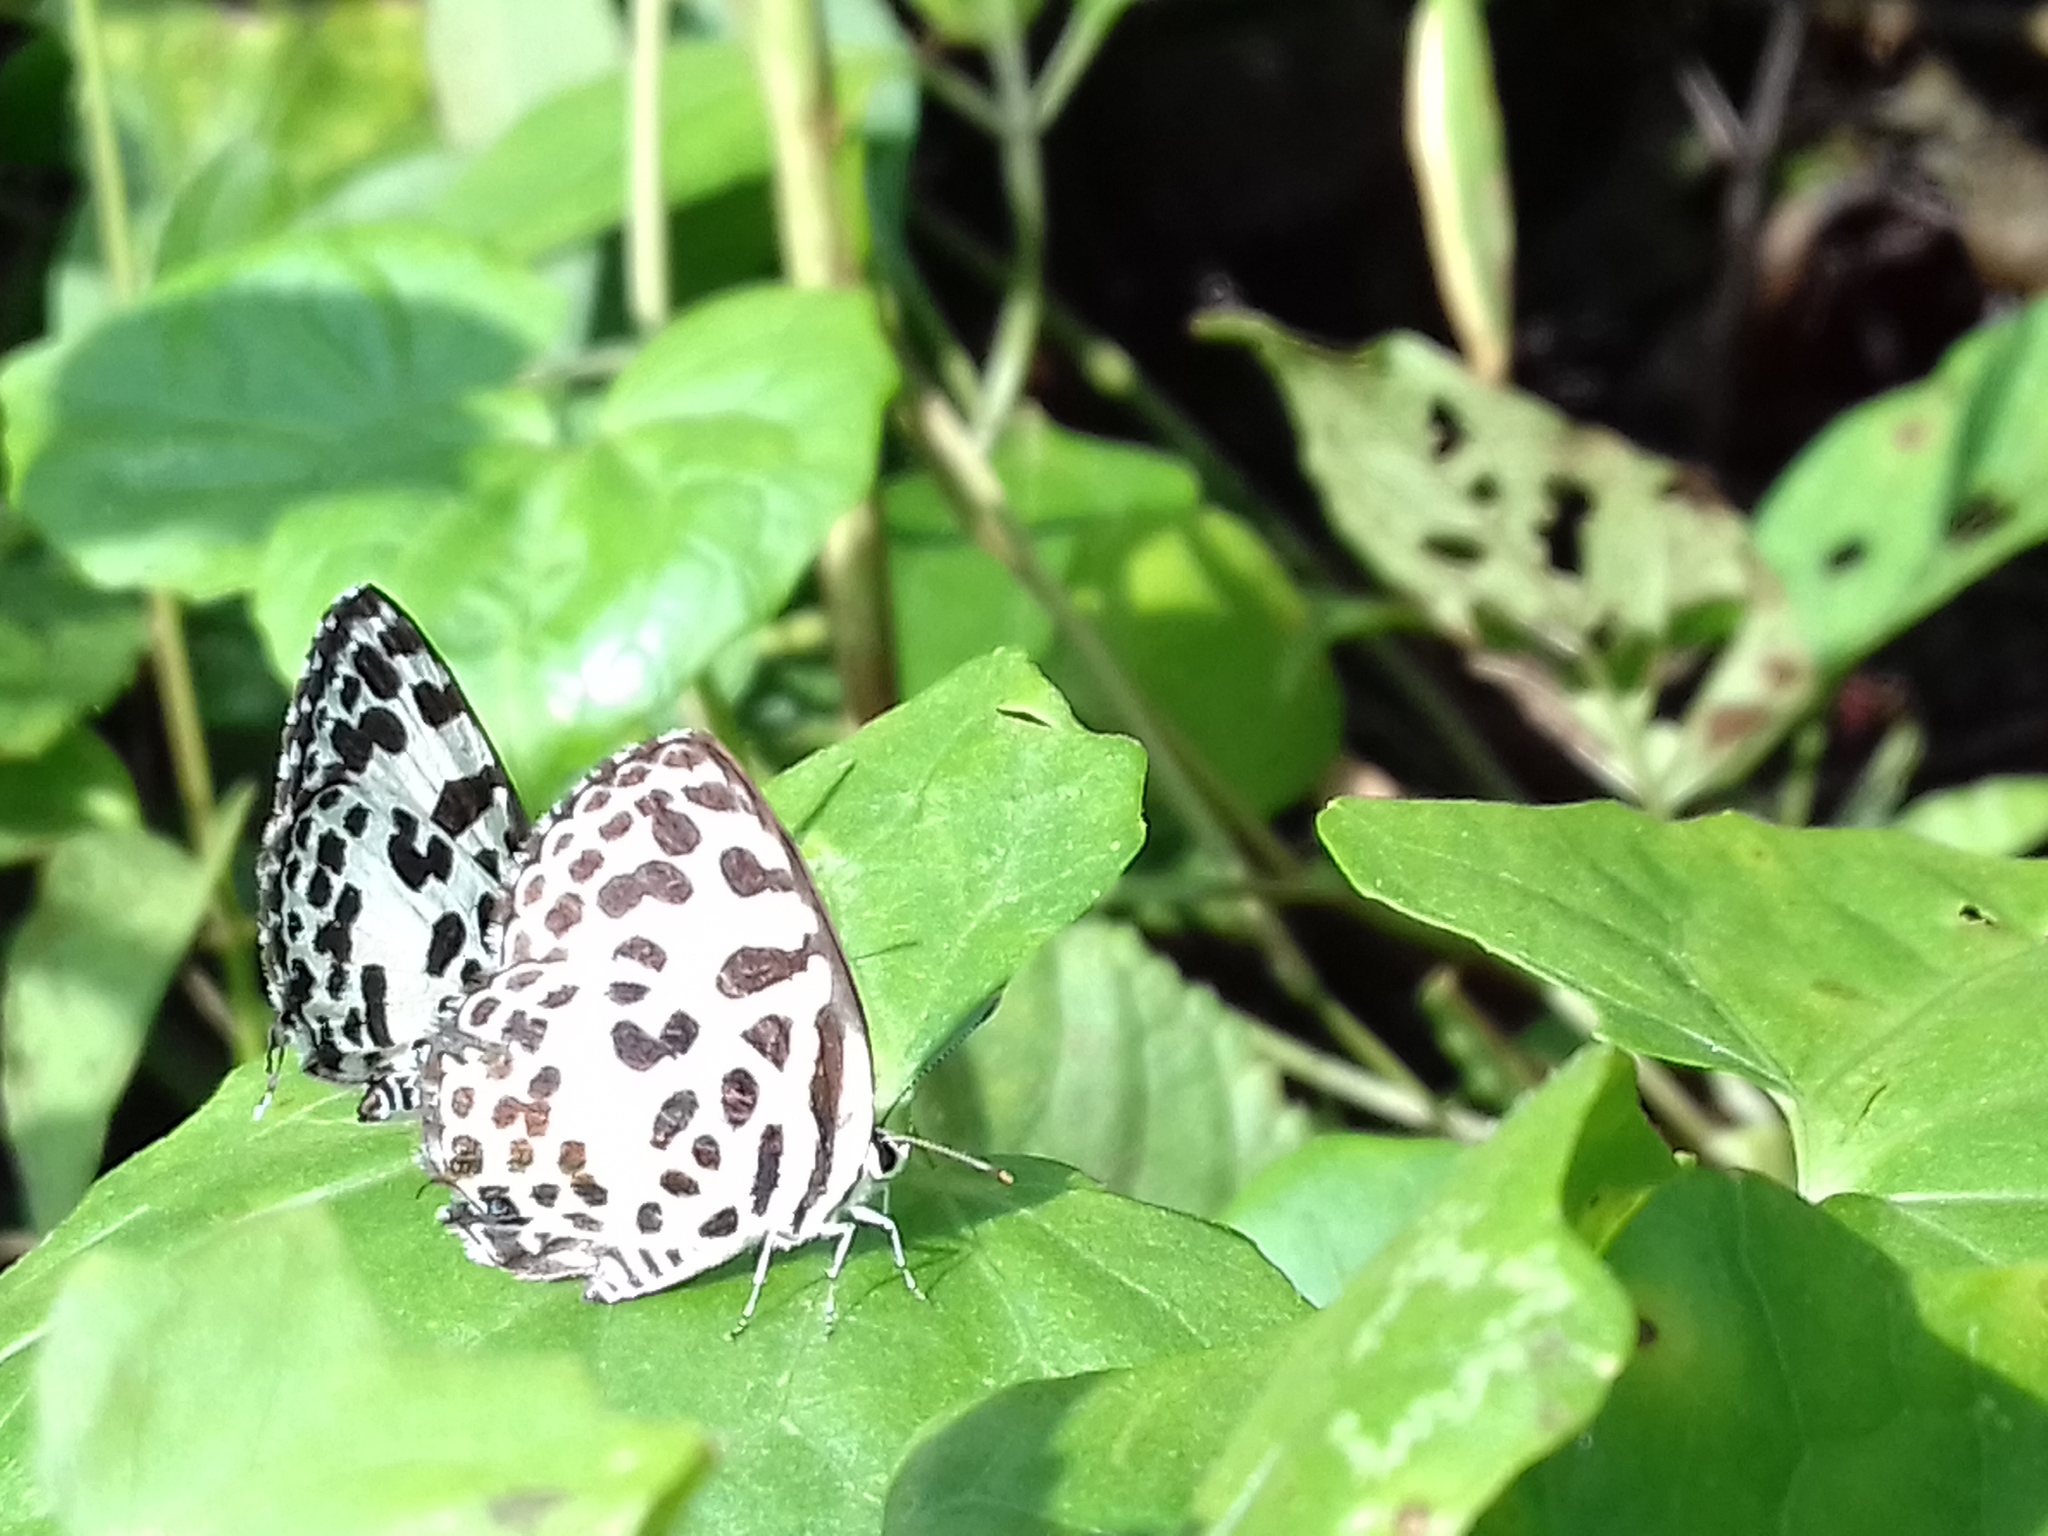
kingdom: Animalia
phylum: Arthropoda
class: Insecta
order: Lepidoptera
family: Lycaenidae
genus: Castalius
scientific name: Castalius rosimon
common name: Common pierrot
